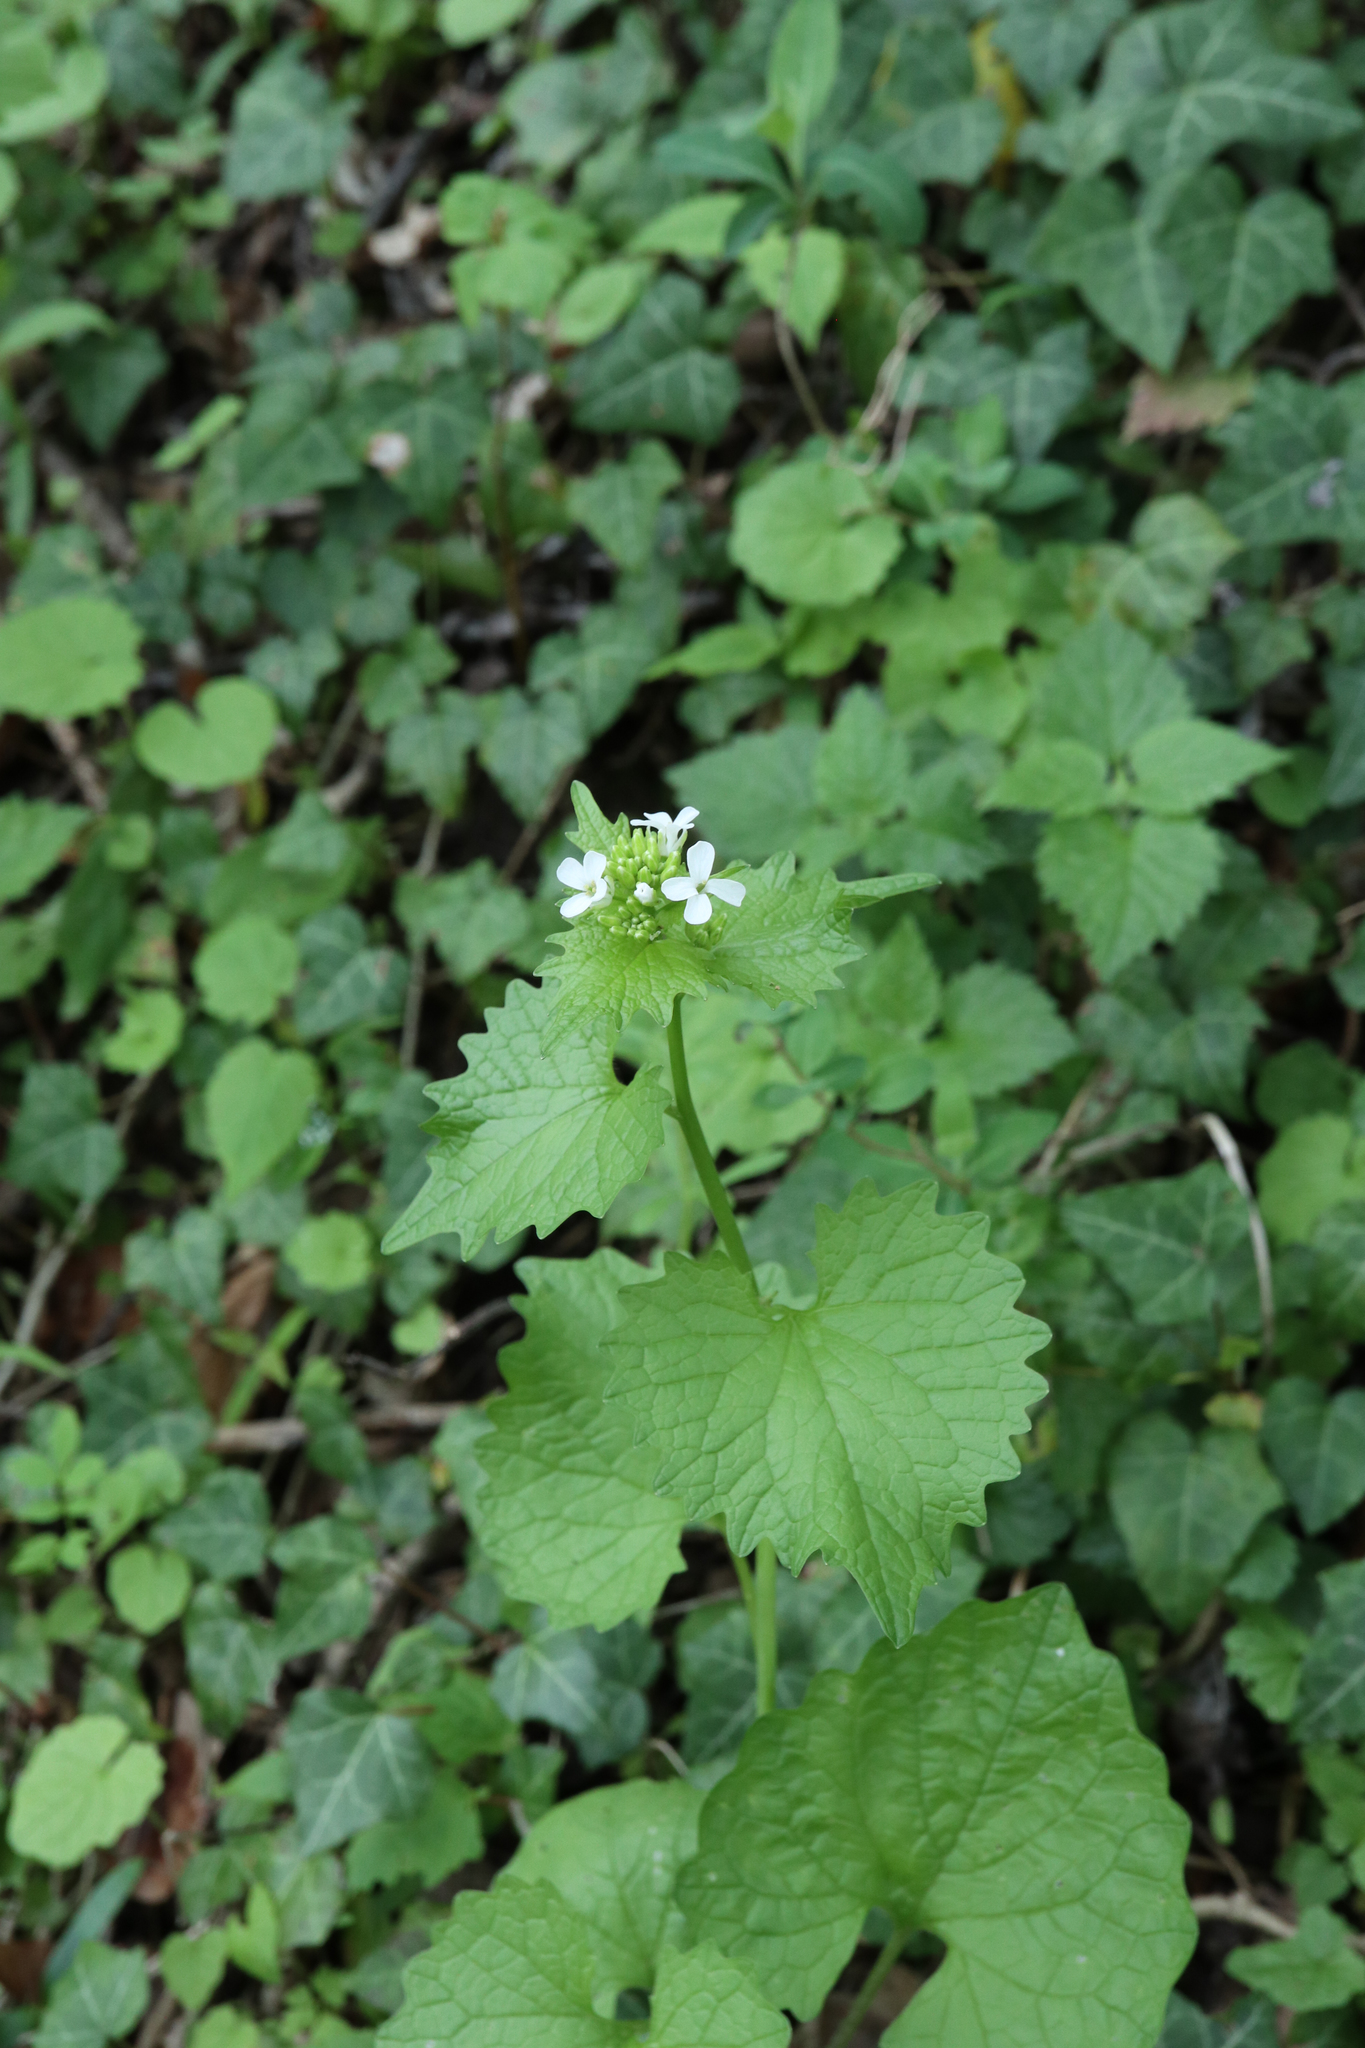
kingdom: Plantae
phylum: Tracheophyta
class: Magnoliopsida
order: Brassicales
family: Brassicaceae
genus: Alliaria
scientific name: Alliaria petiolata
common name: Garlic mustard
